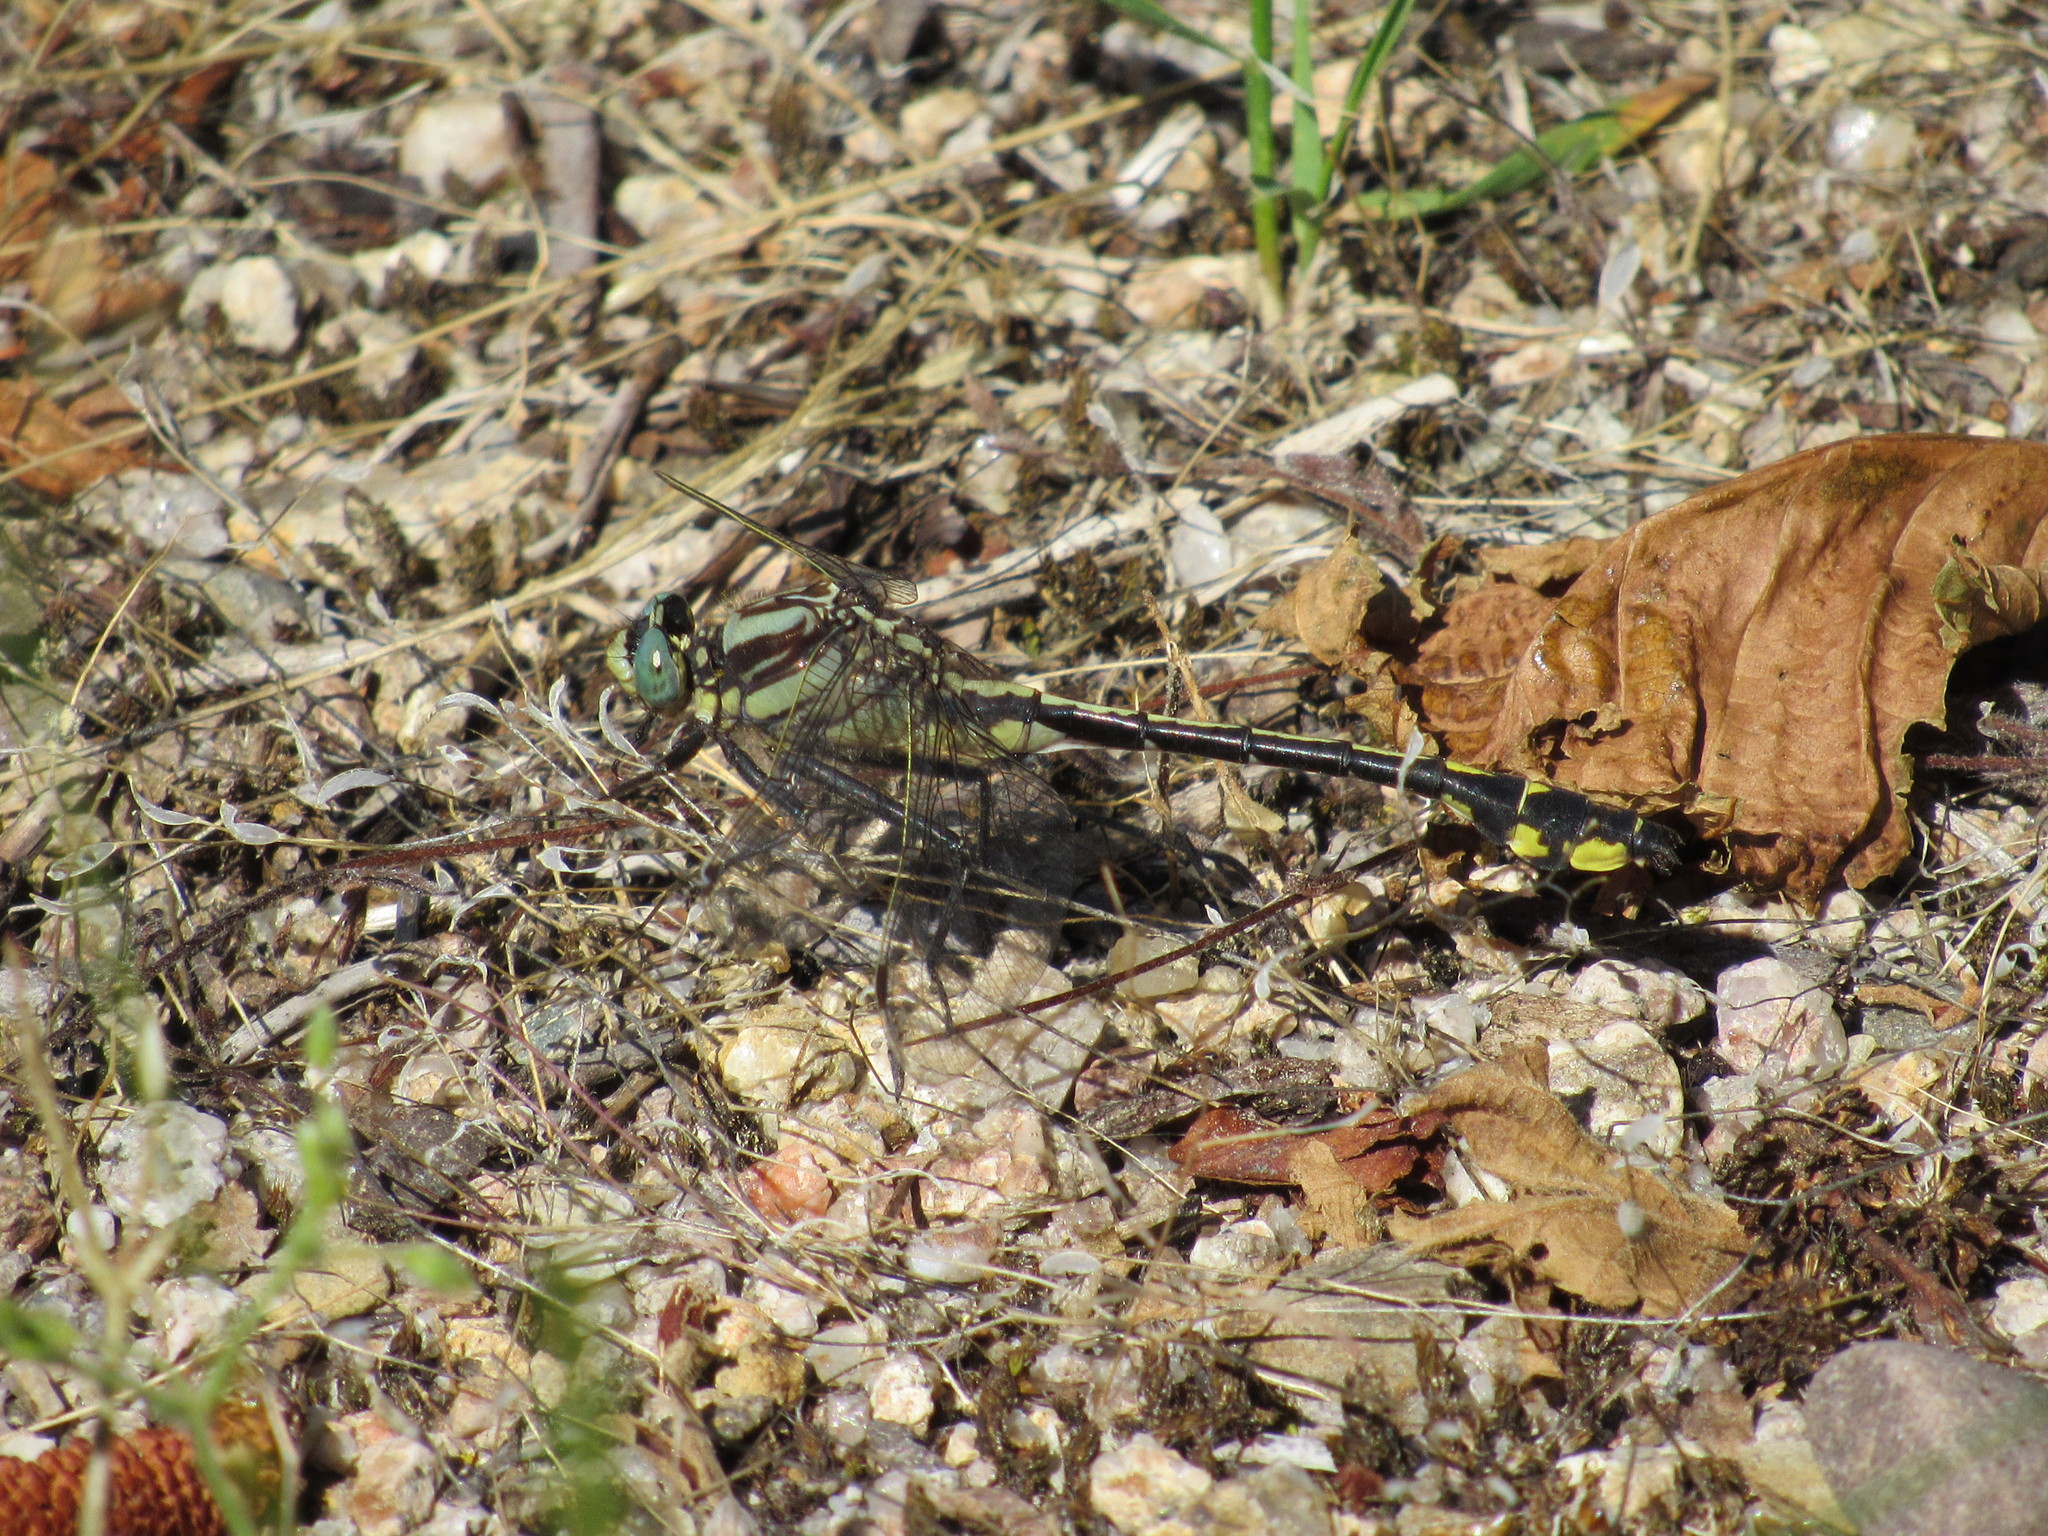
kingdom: Animalia
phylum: Arthropoda
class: Insecta
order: Odonata
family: Gomphidae
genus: Phanogomphus
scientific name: Phanogomphus graslinellus
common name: Pronghorn clubtail
